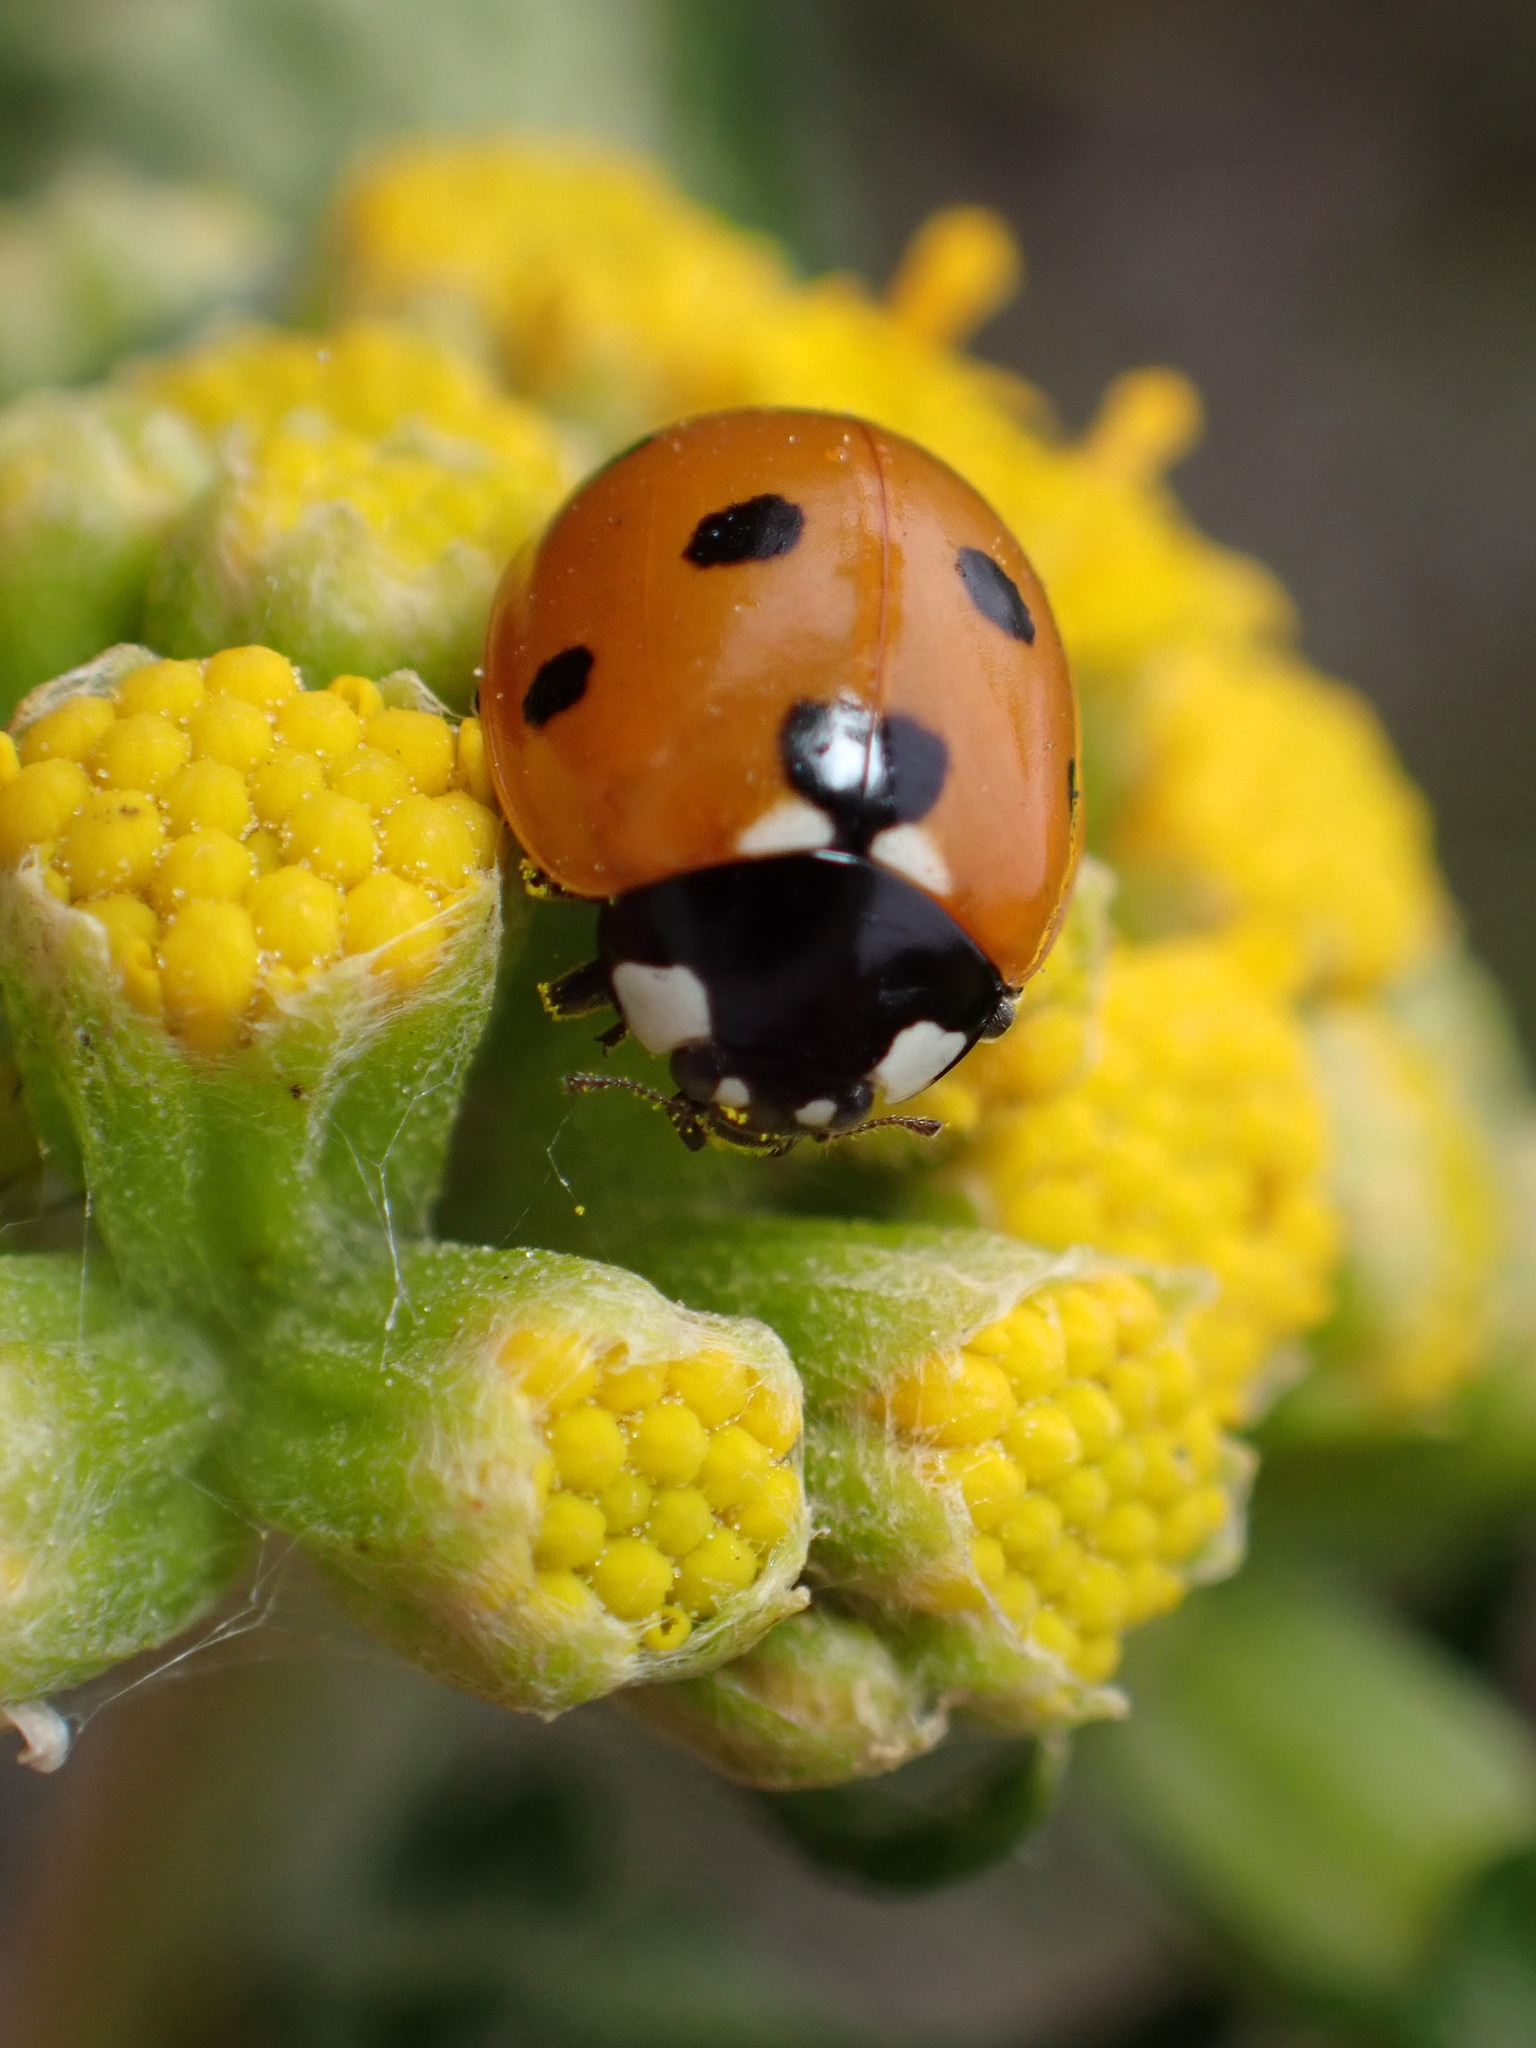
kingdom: Animalia
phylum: Arthropoda
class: Insecta
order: Coleoptera
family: Coccinellidae
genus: Coccinella
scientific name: Coccinella septempunctata
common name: Sevenspotted lady beetle
